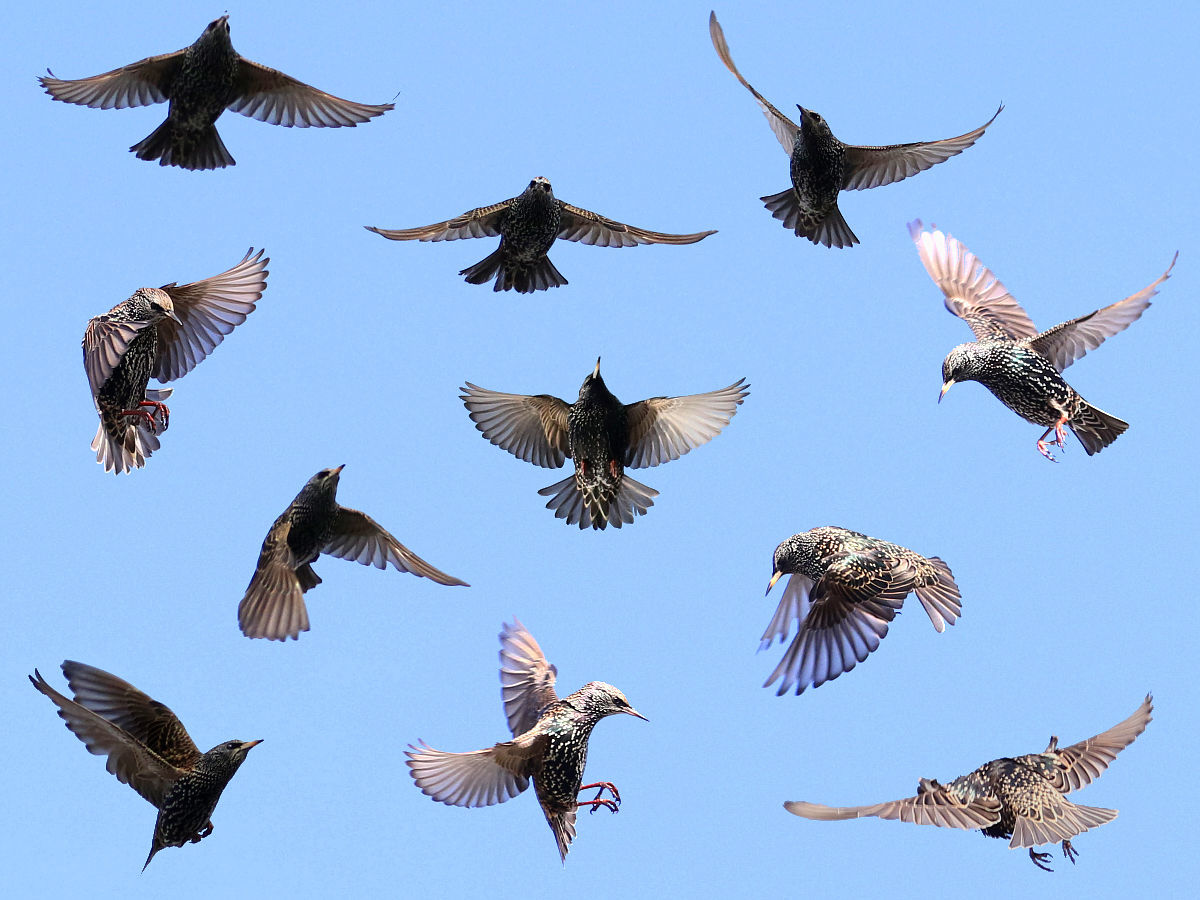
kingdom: Animalia
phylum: Chordata
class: Aves
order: Passeriformes
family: Sturnidae
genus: Sturnus
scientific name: Sturnus vulgaris
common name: Common starling
